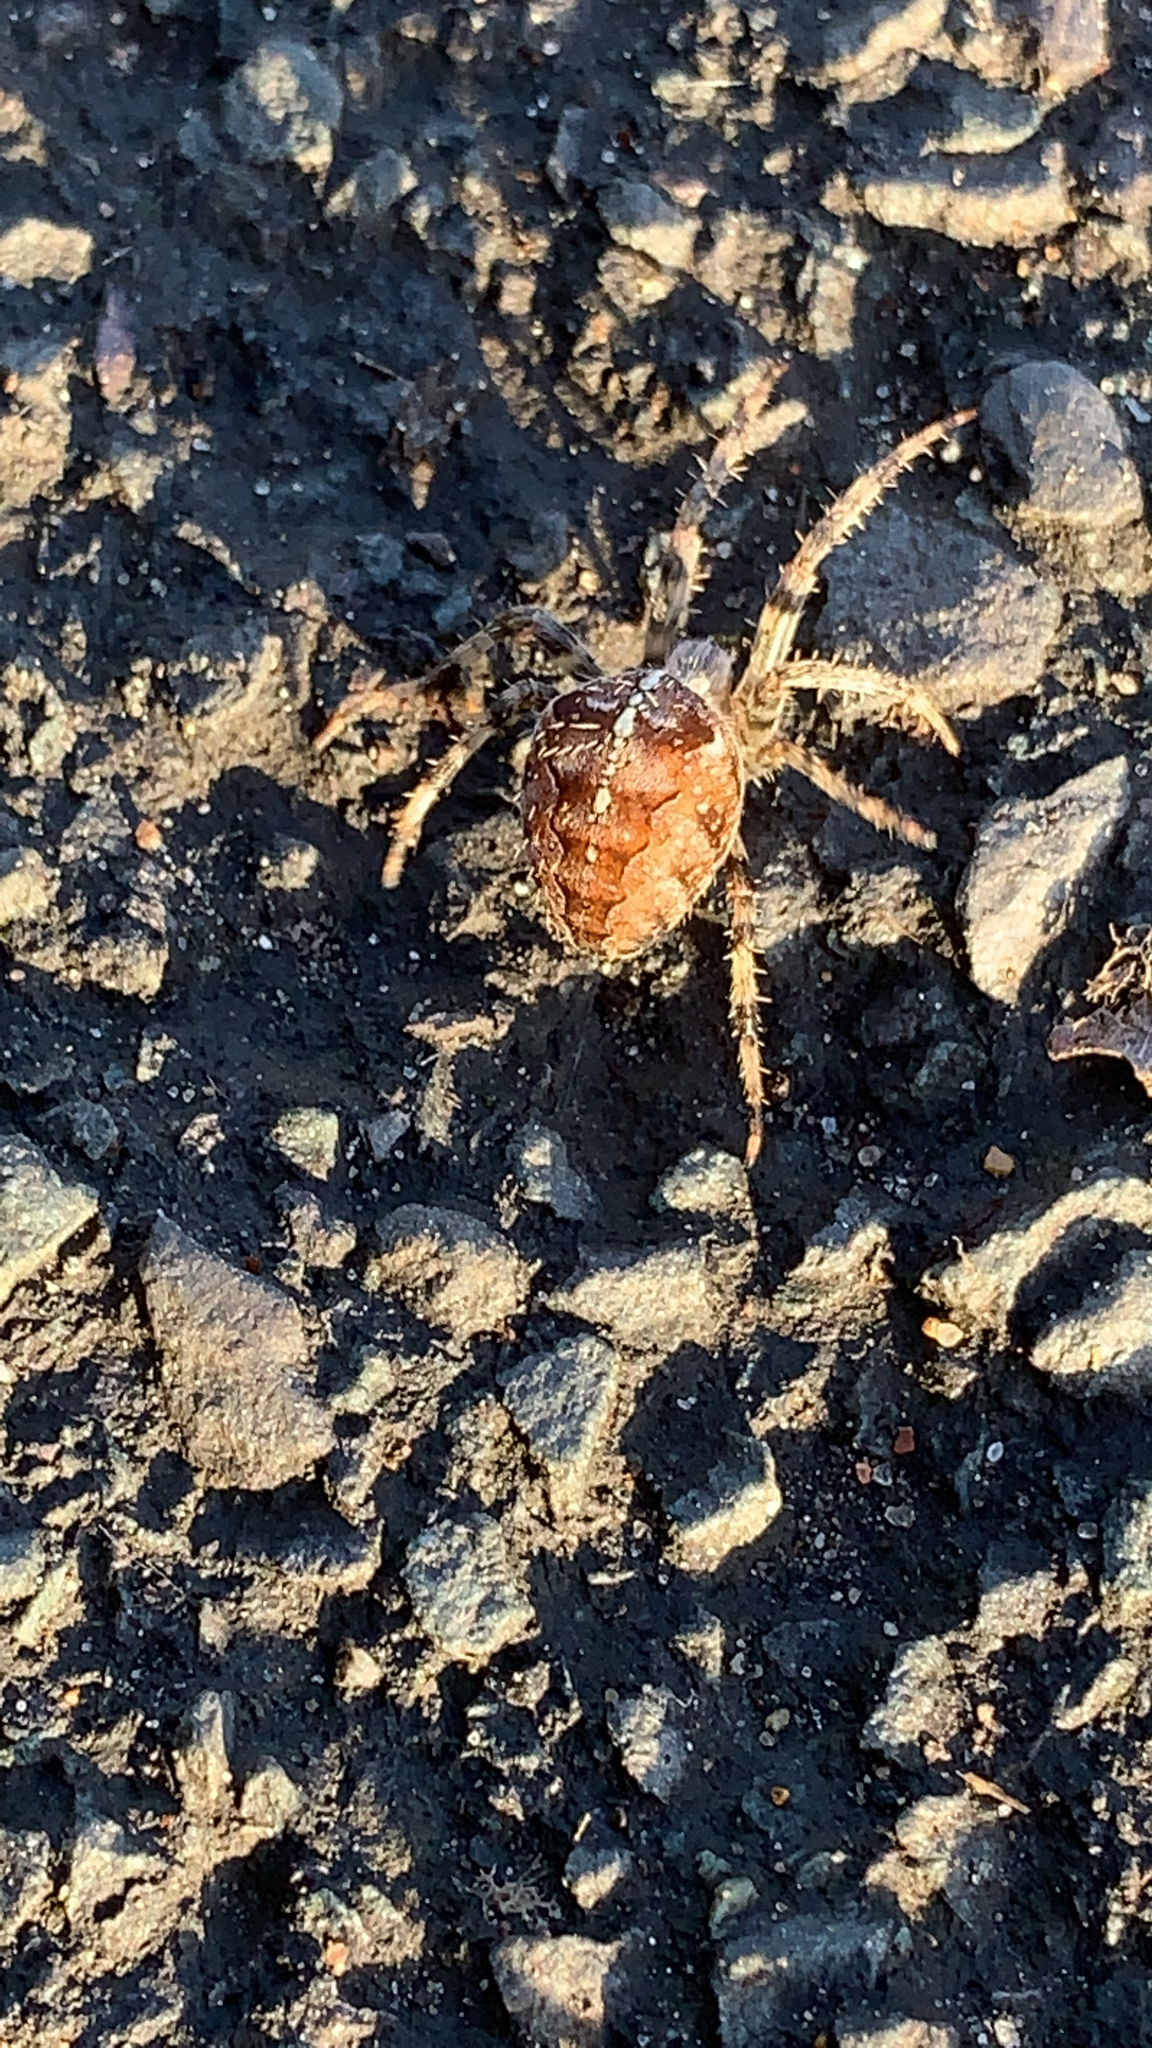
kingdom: Animalia
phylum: Arthropoda
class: Arachnida
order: Araneae
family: Araneidae
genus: Araneus
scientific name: Araneus diadematus
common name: Cross orbweaver
